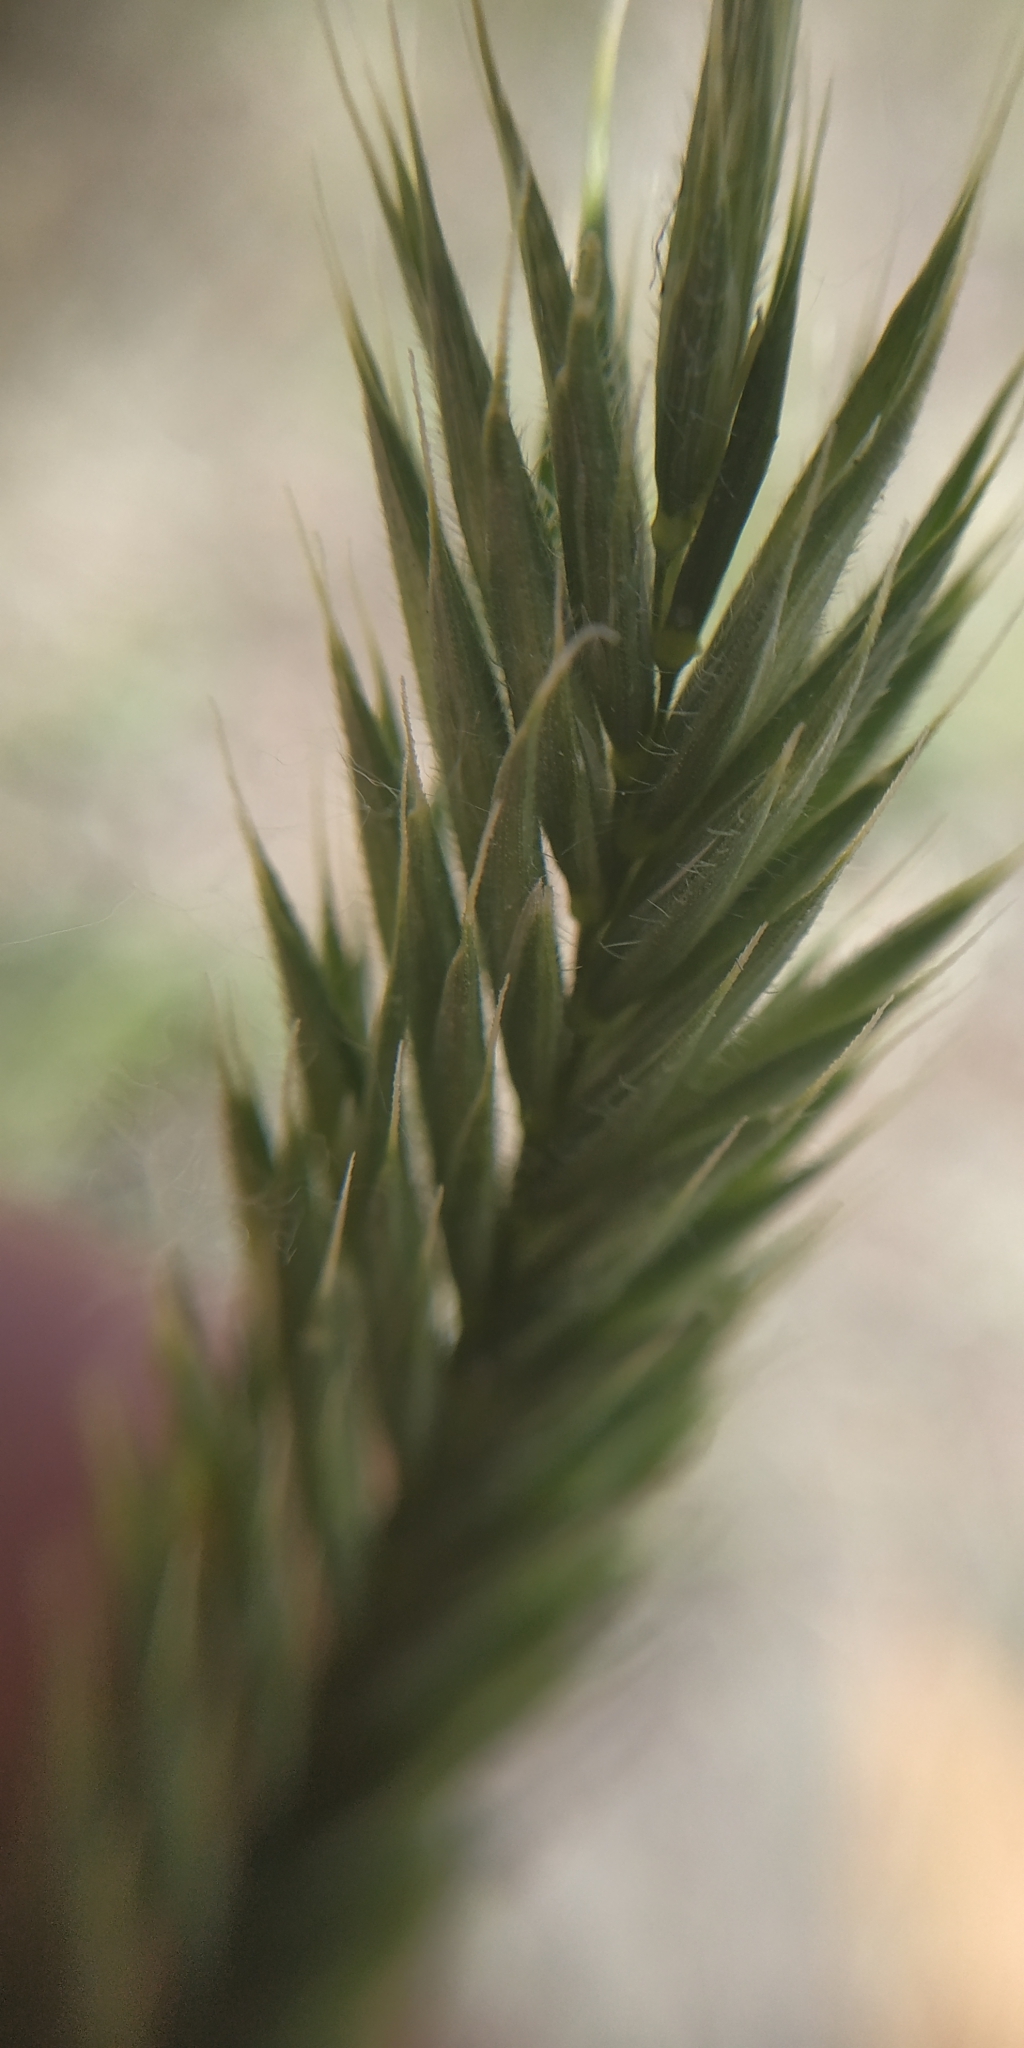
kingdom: Plantae
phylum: Tracheophyta
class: Liliopsida
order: Poales
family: Poaceae
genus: Agropyron
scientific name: Agropyron cristatum
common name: Crested wheatgrass
